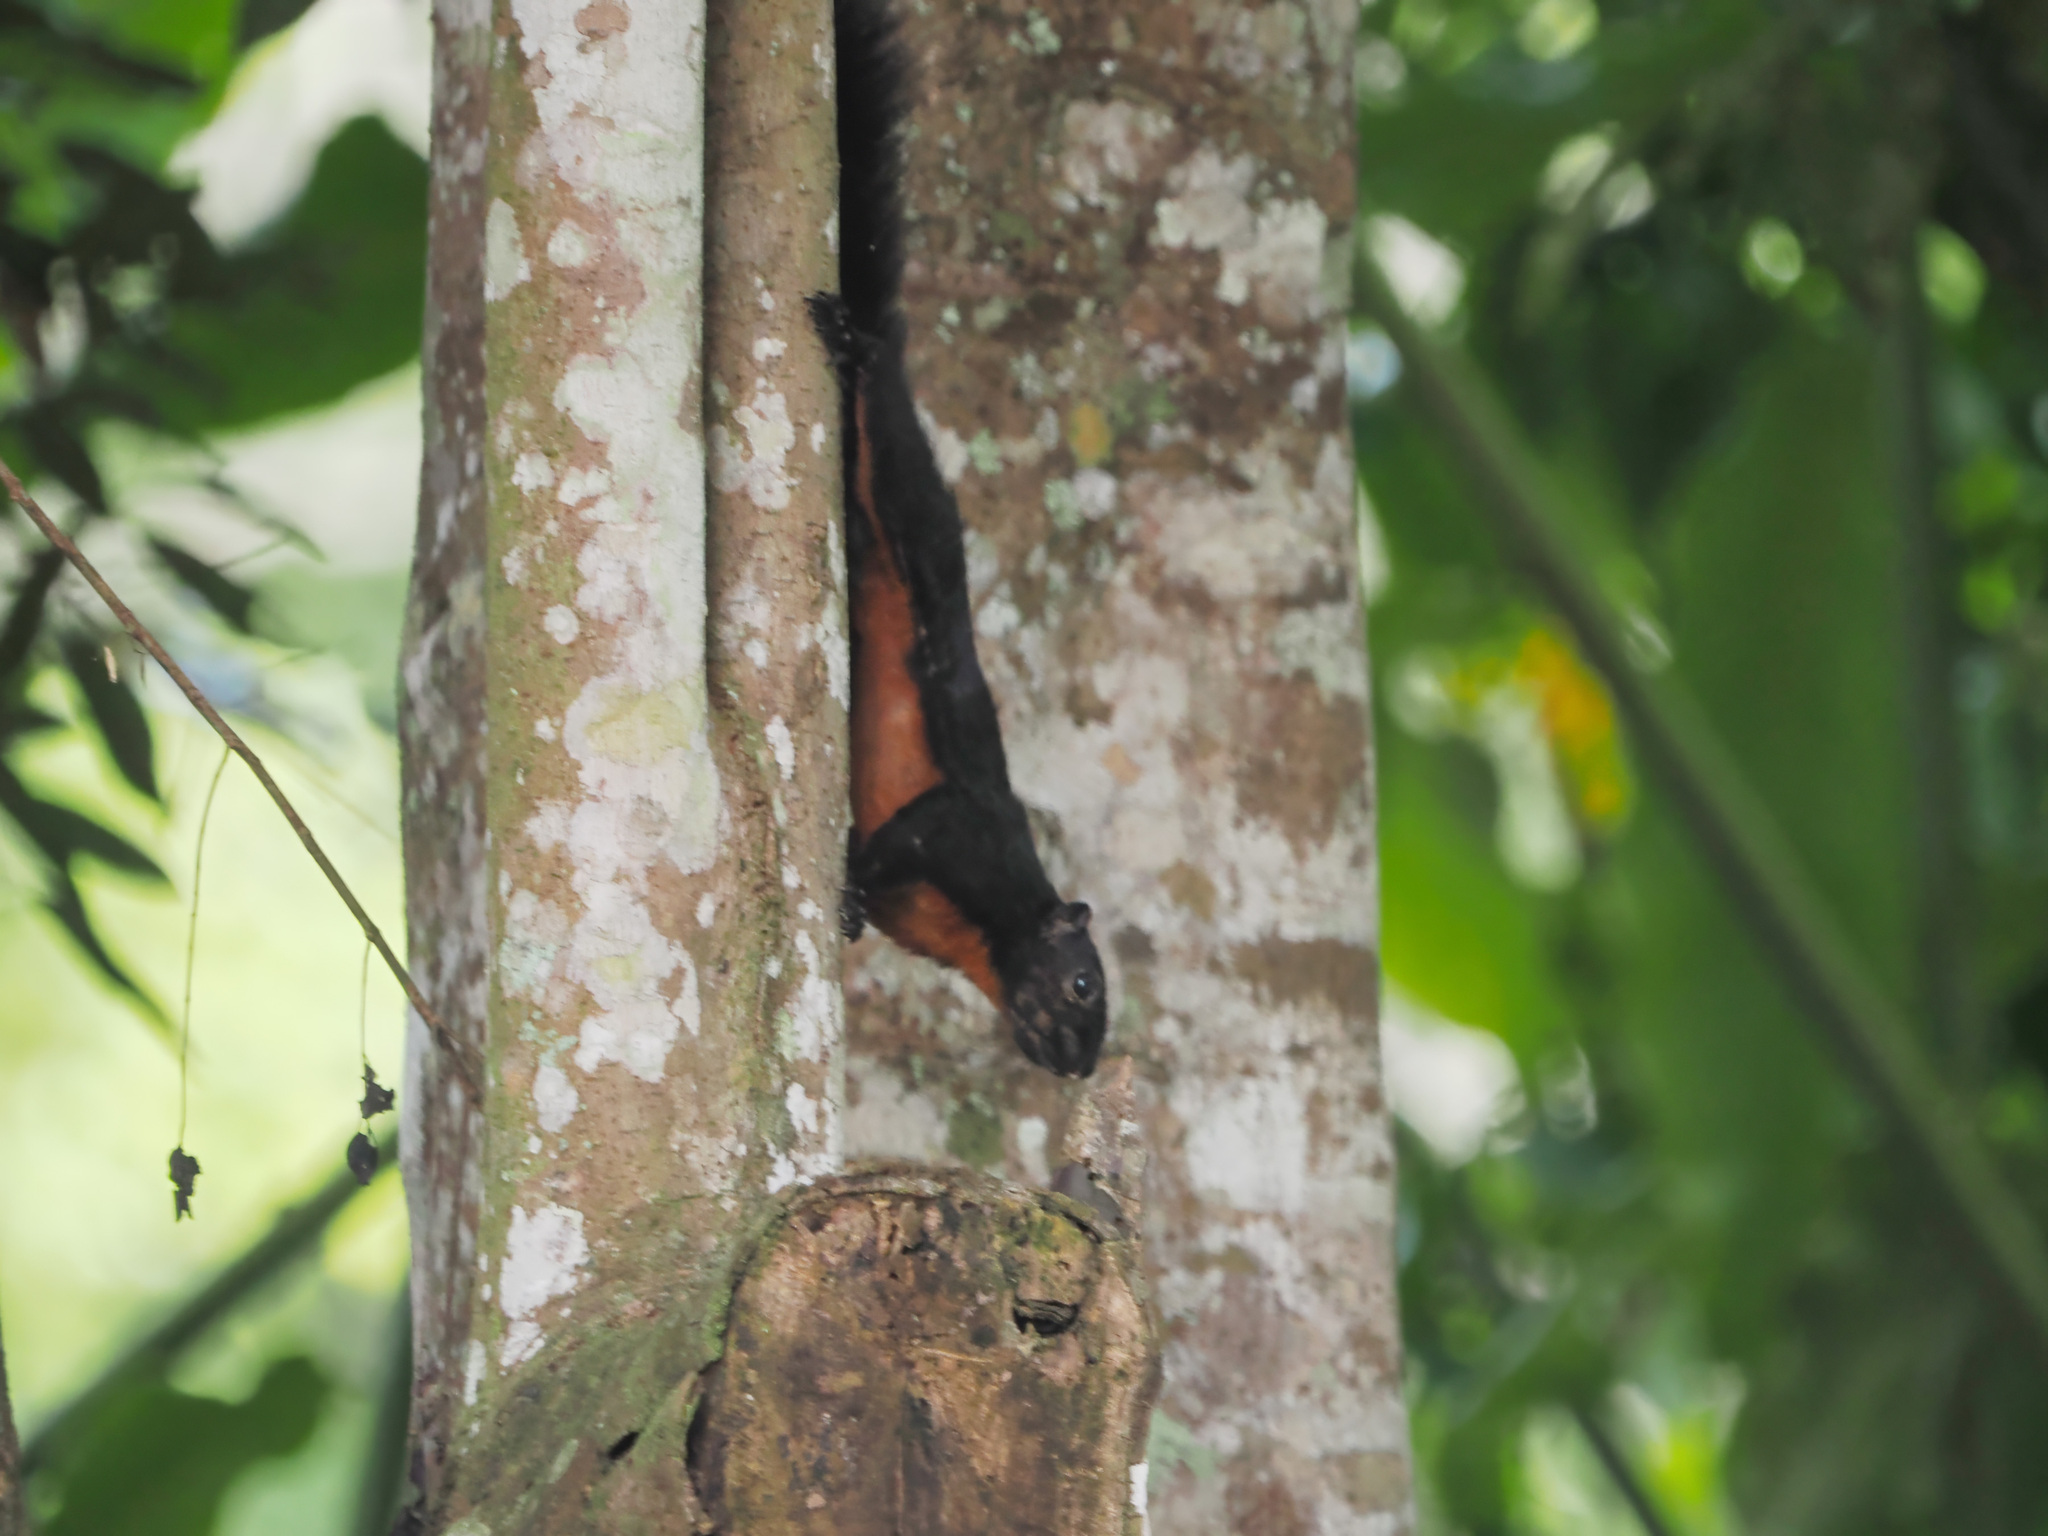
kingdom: Animalia
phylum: Chordata
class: Mammalia
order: Rodentia
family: Sciuridae
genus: Callosciurus
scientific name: Callosciurus prevostii
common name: Prevost's squirrel
